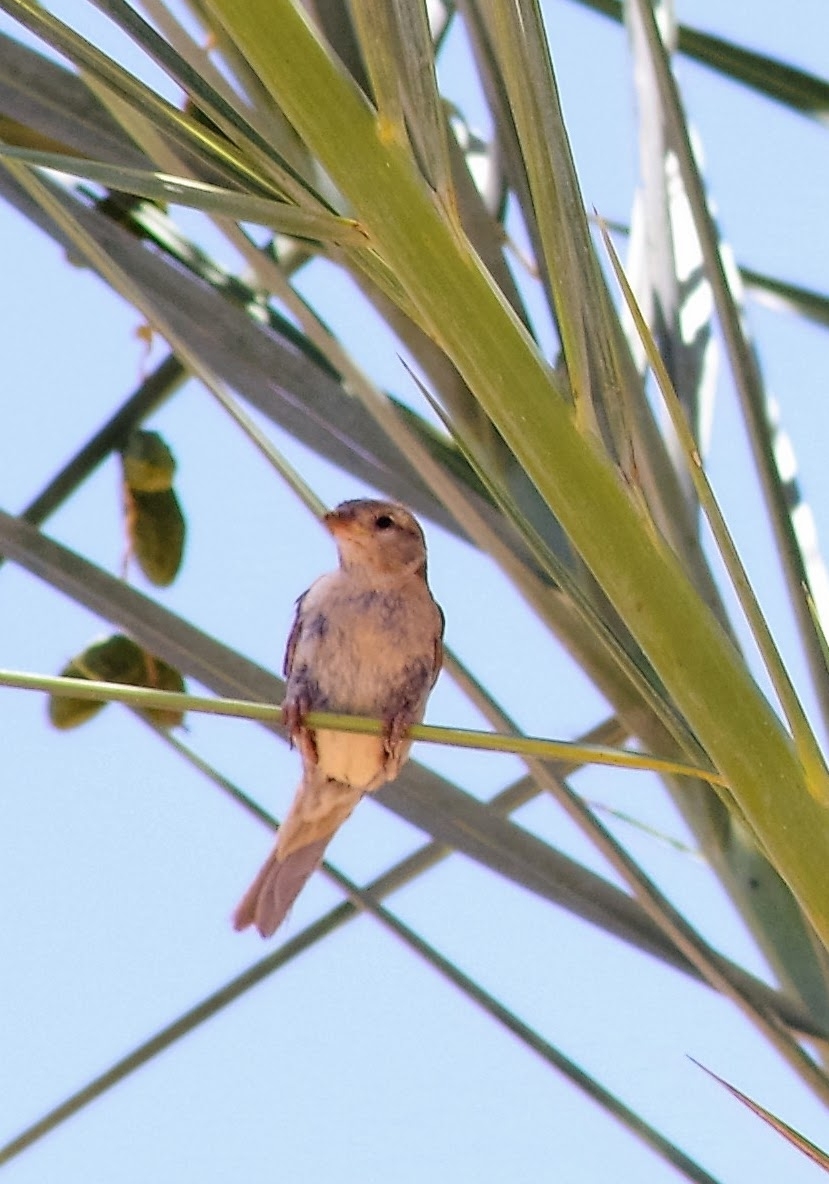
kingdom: Animalia
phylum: Chordata
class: Aves
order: Passeriformes
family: Passeridae
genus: Passer
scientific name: Passer domesticus
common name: House sparrow
